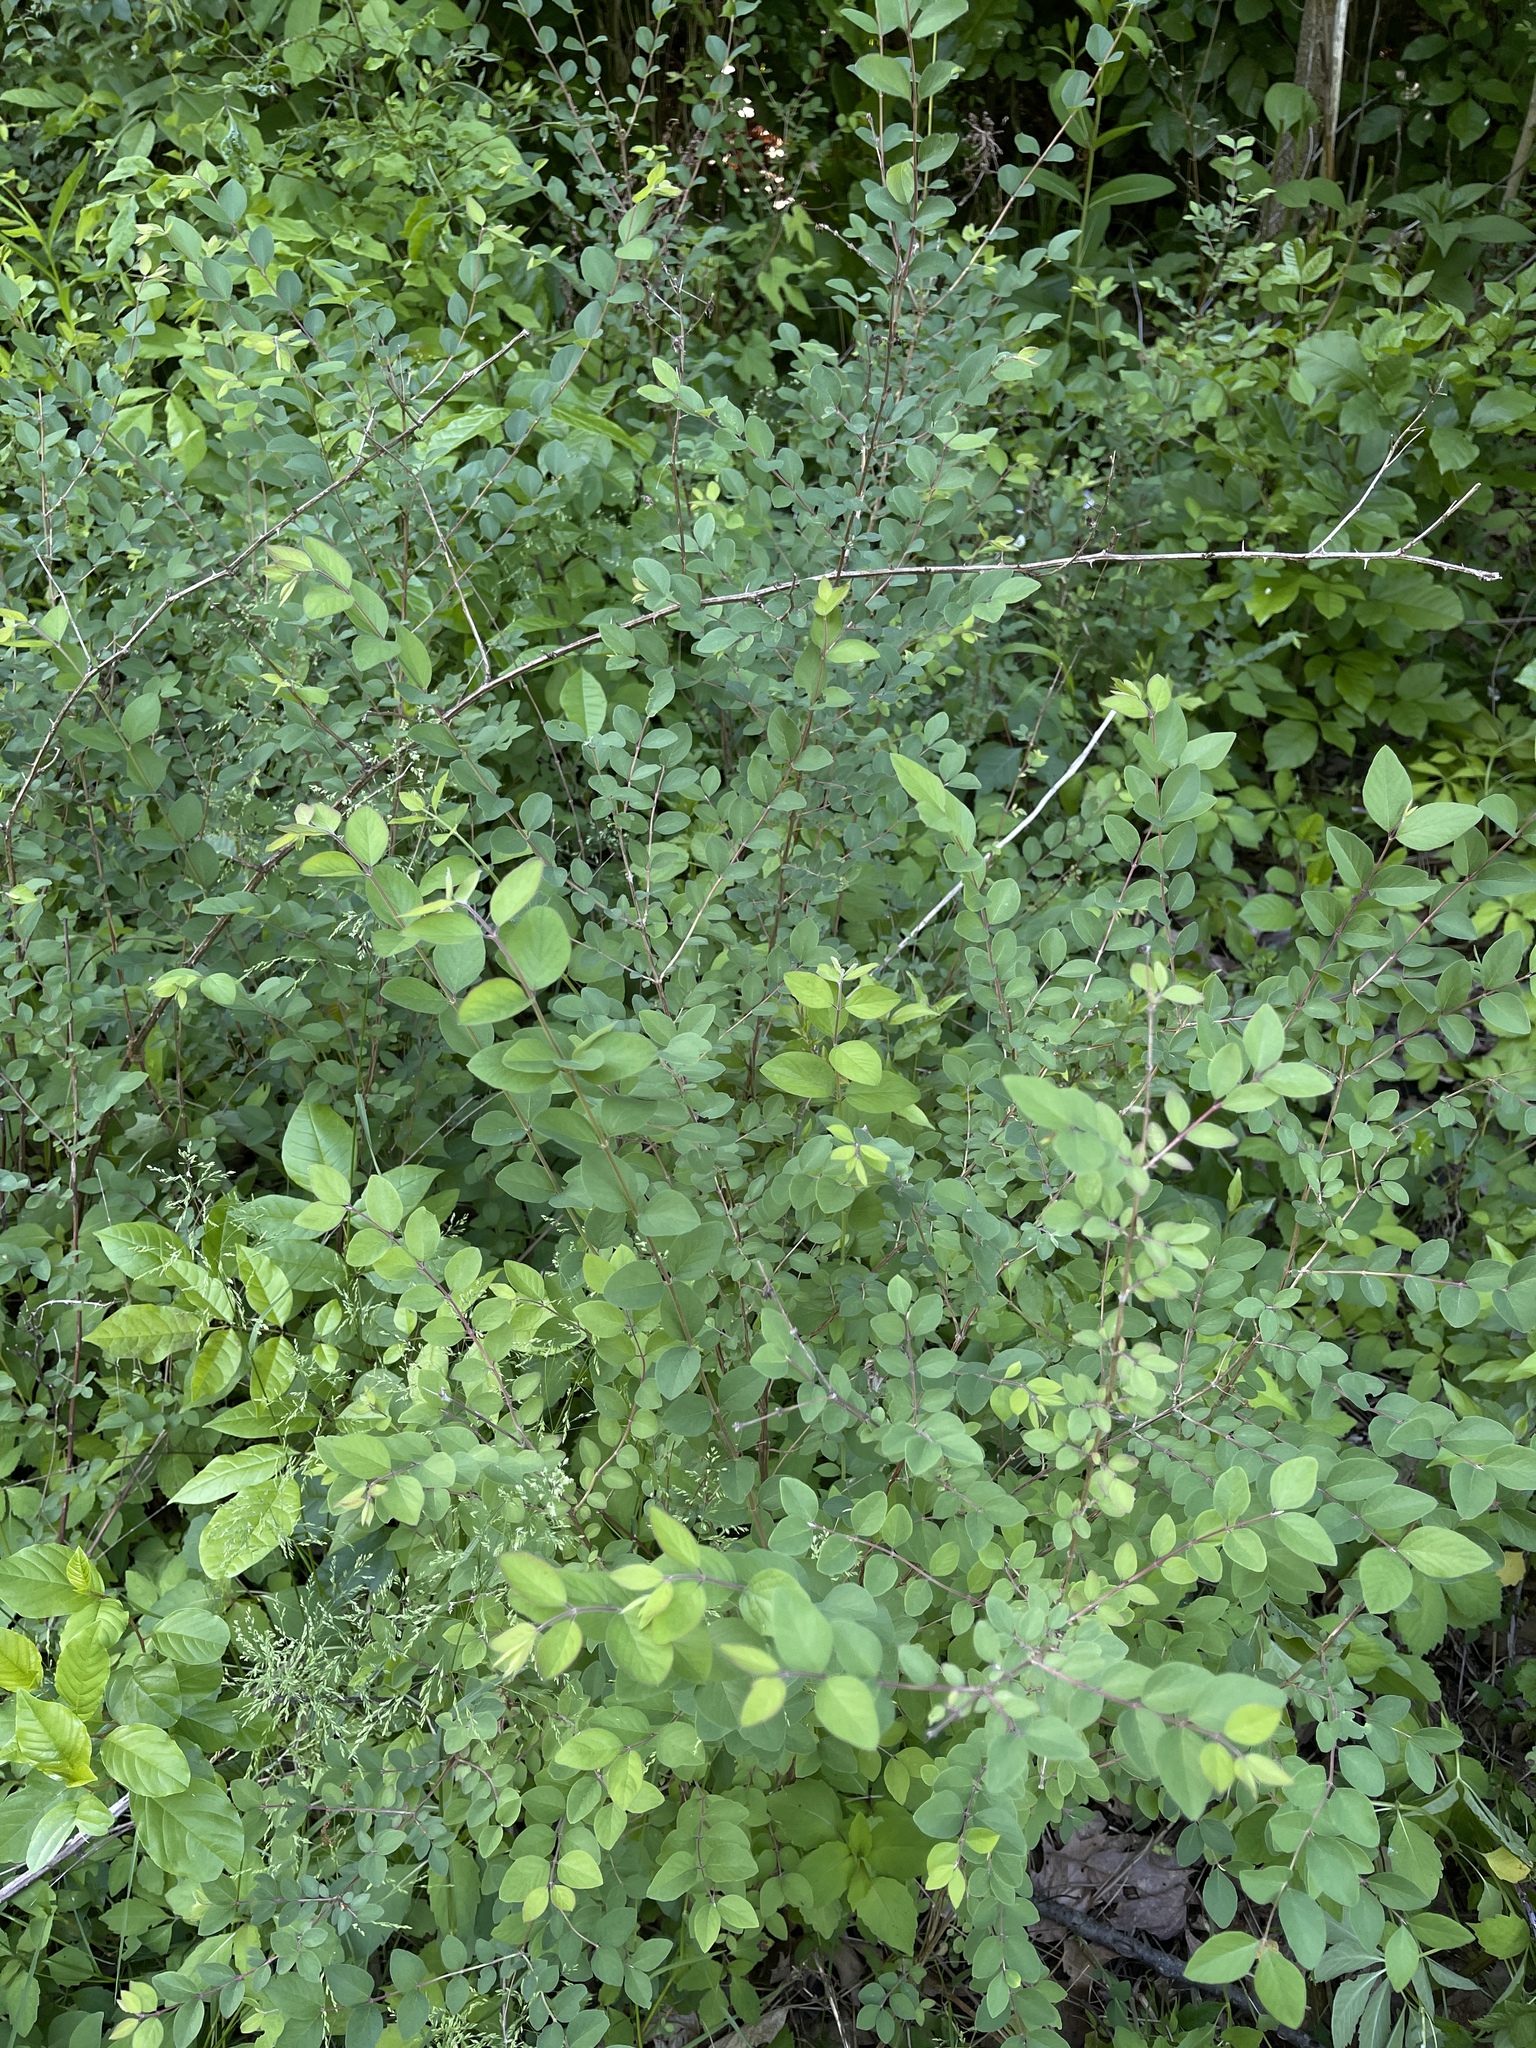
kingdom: Plantae
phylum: Tracheophyta
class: Magnoliopsida
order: Dipsacales
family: Caprifoliaceae
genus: Symphoricarpos
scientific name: Symphoricarpos orbiculatus
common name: Coralberry
